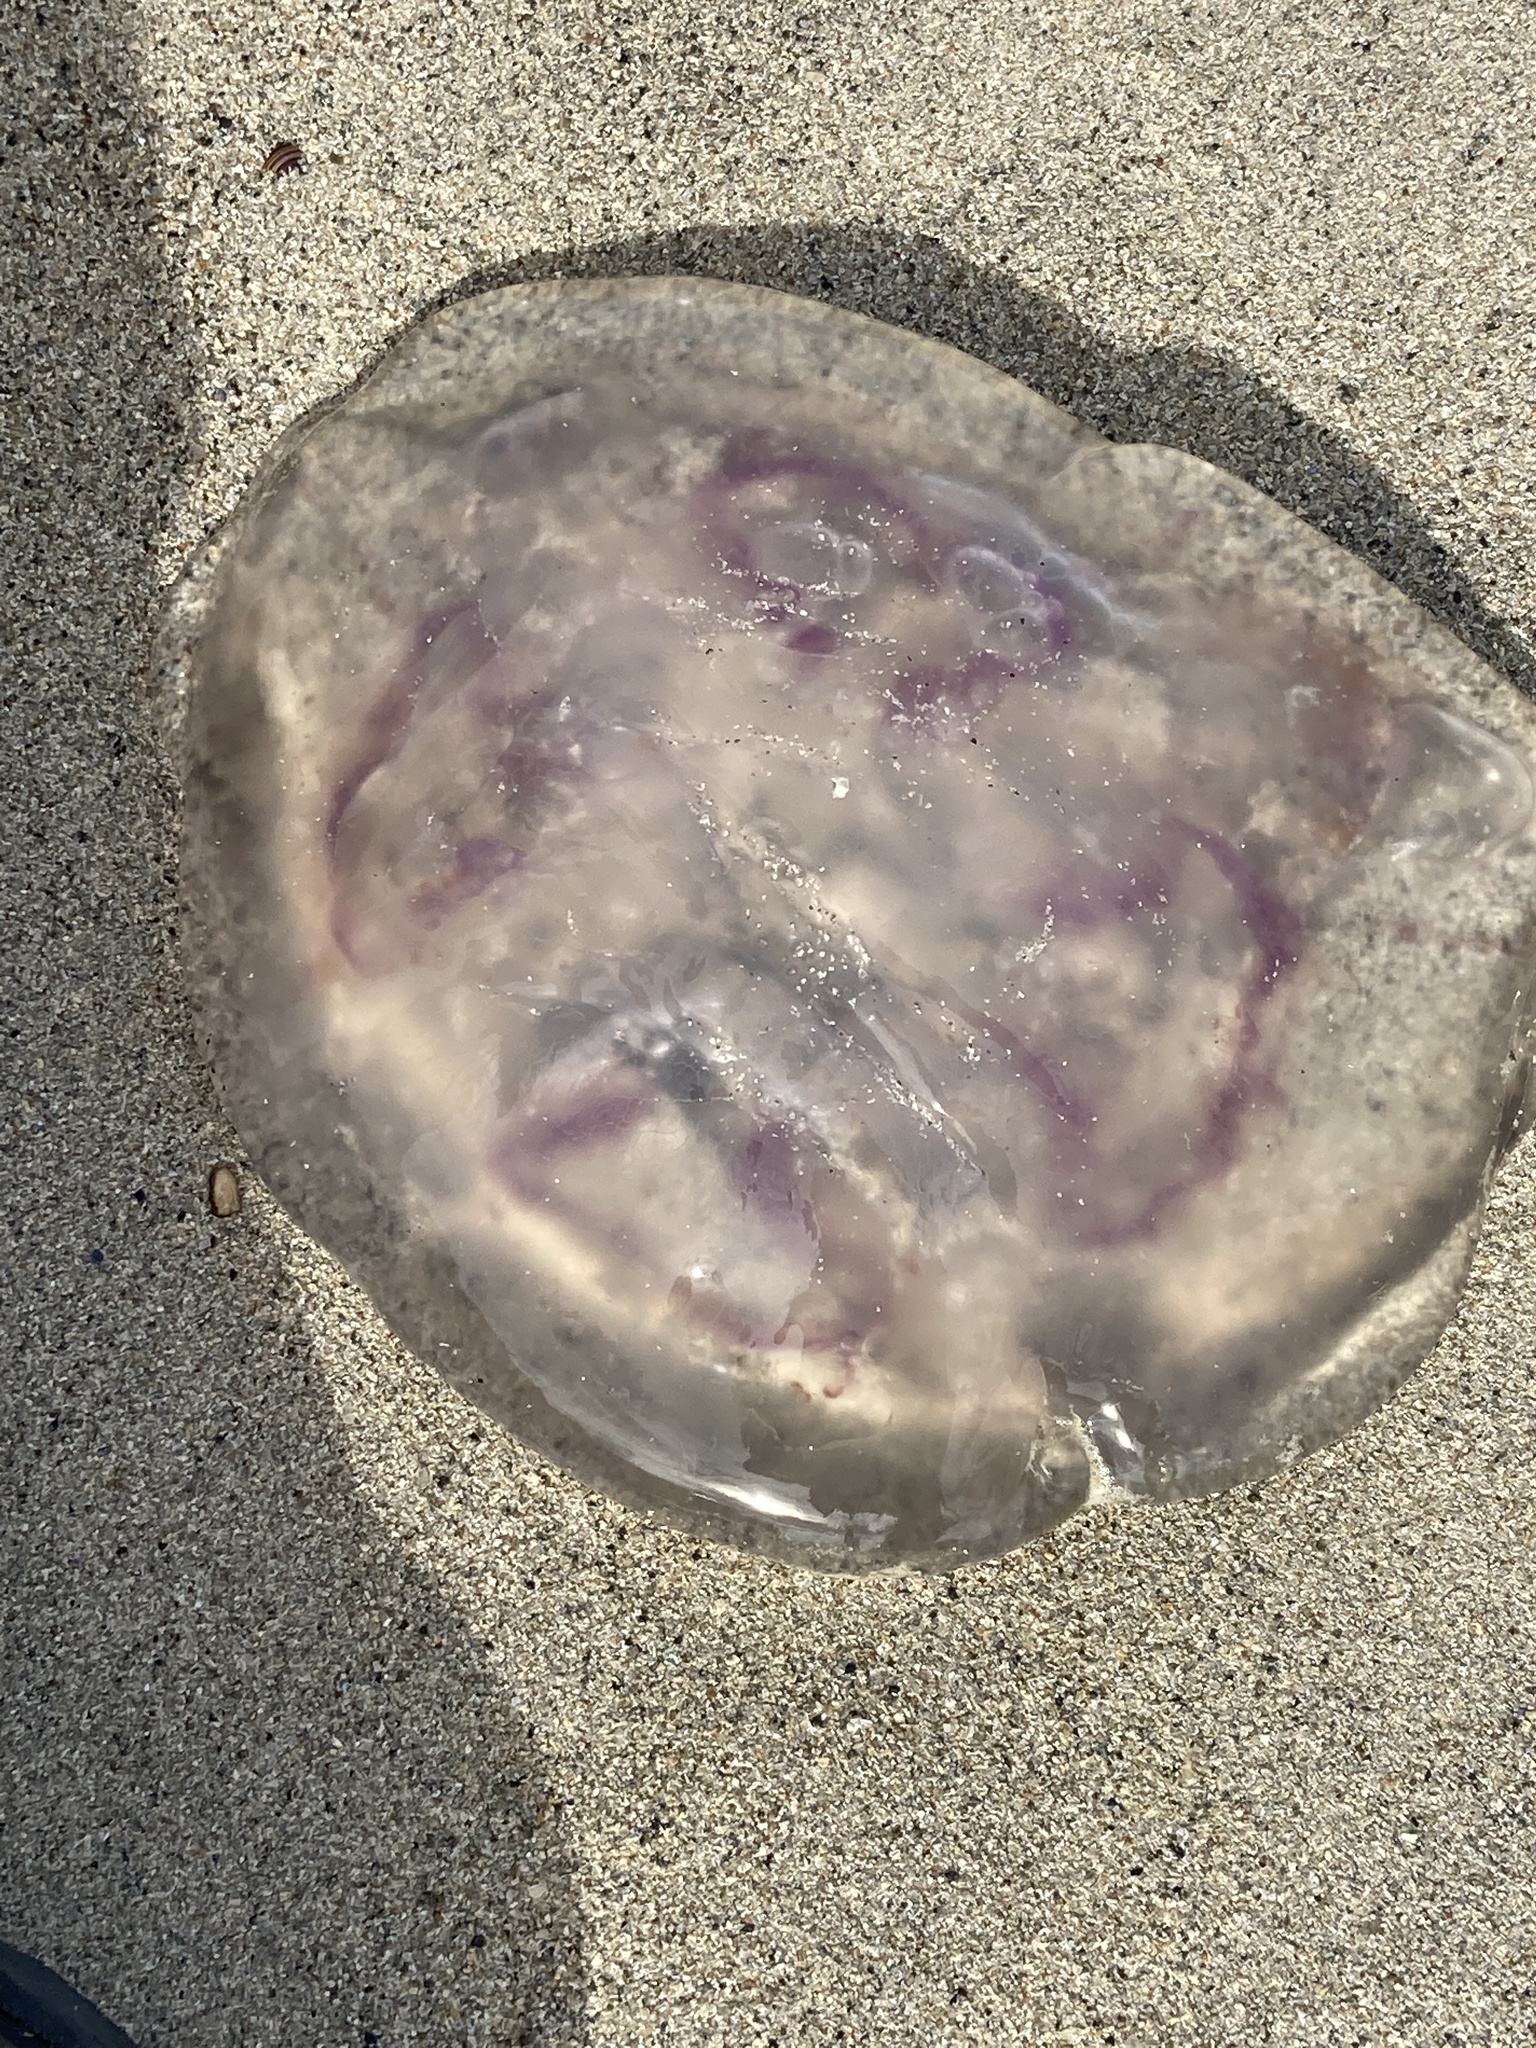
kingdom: Animalia
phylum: Cnidaria
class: Scyphozoa
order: Semaeostomeae
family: Ulmaridae
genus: Aurelia
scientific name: Aurelia aurita
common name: Moon jellyfish
